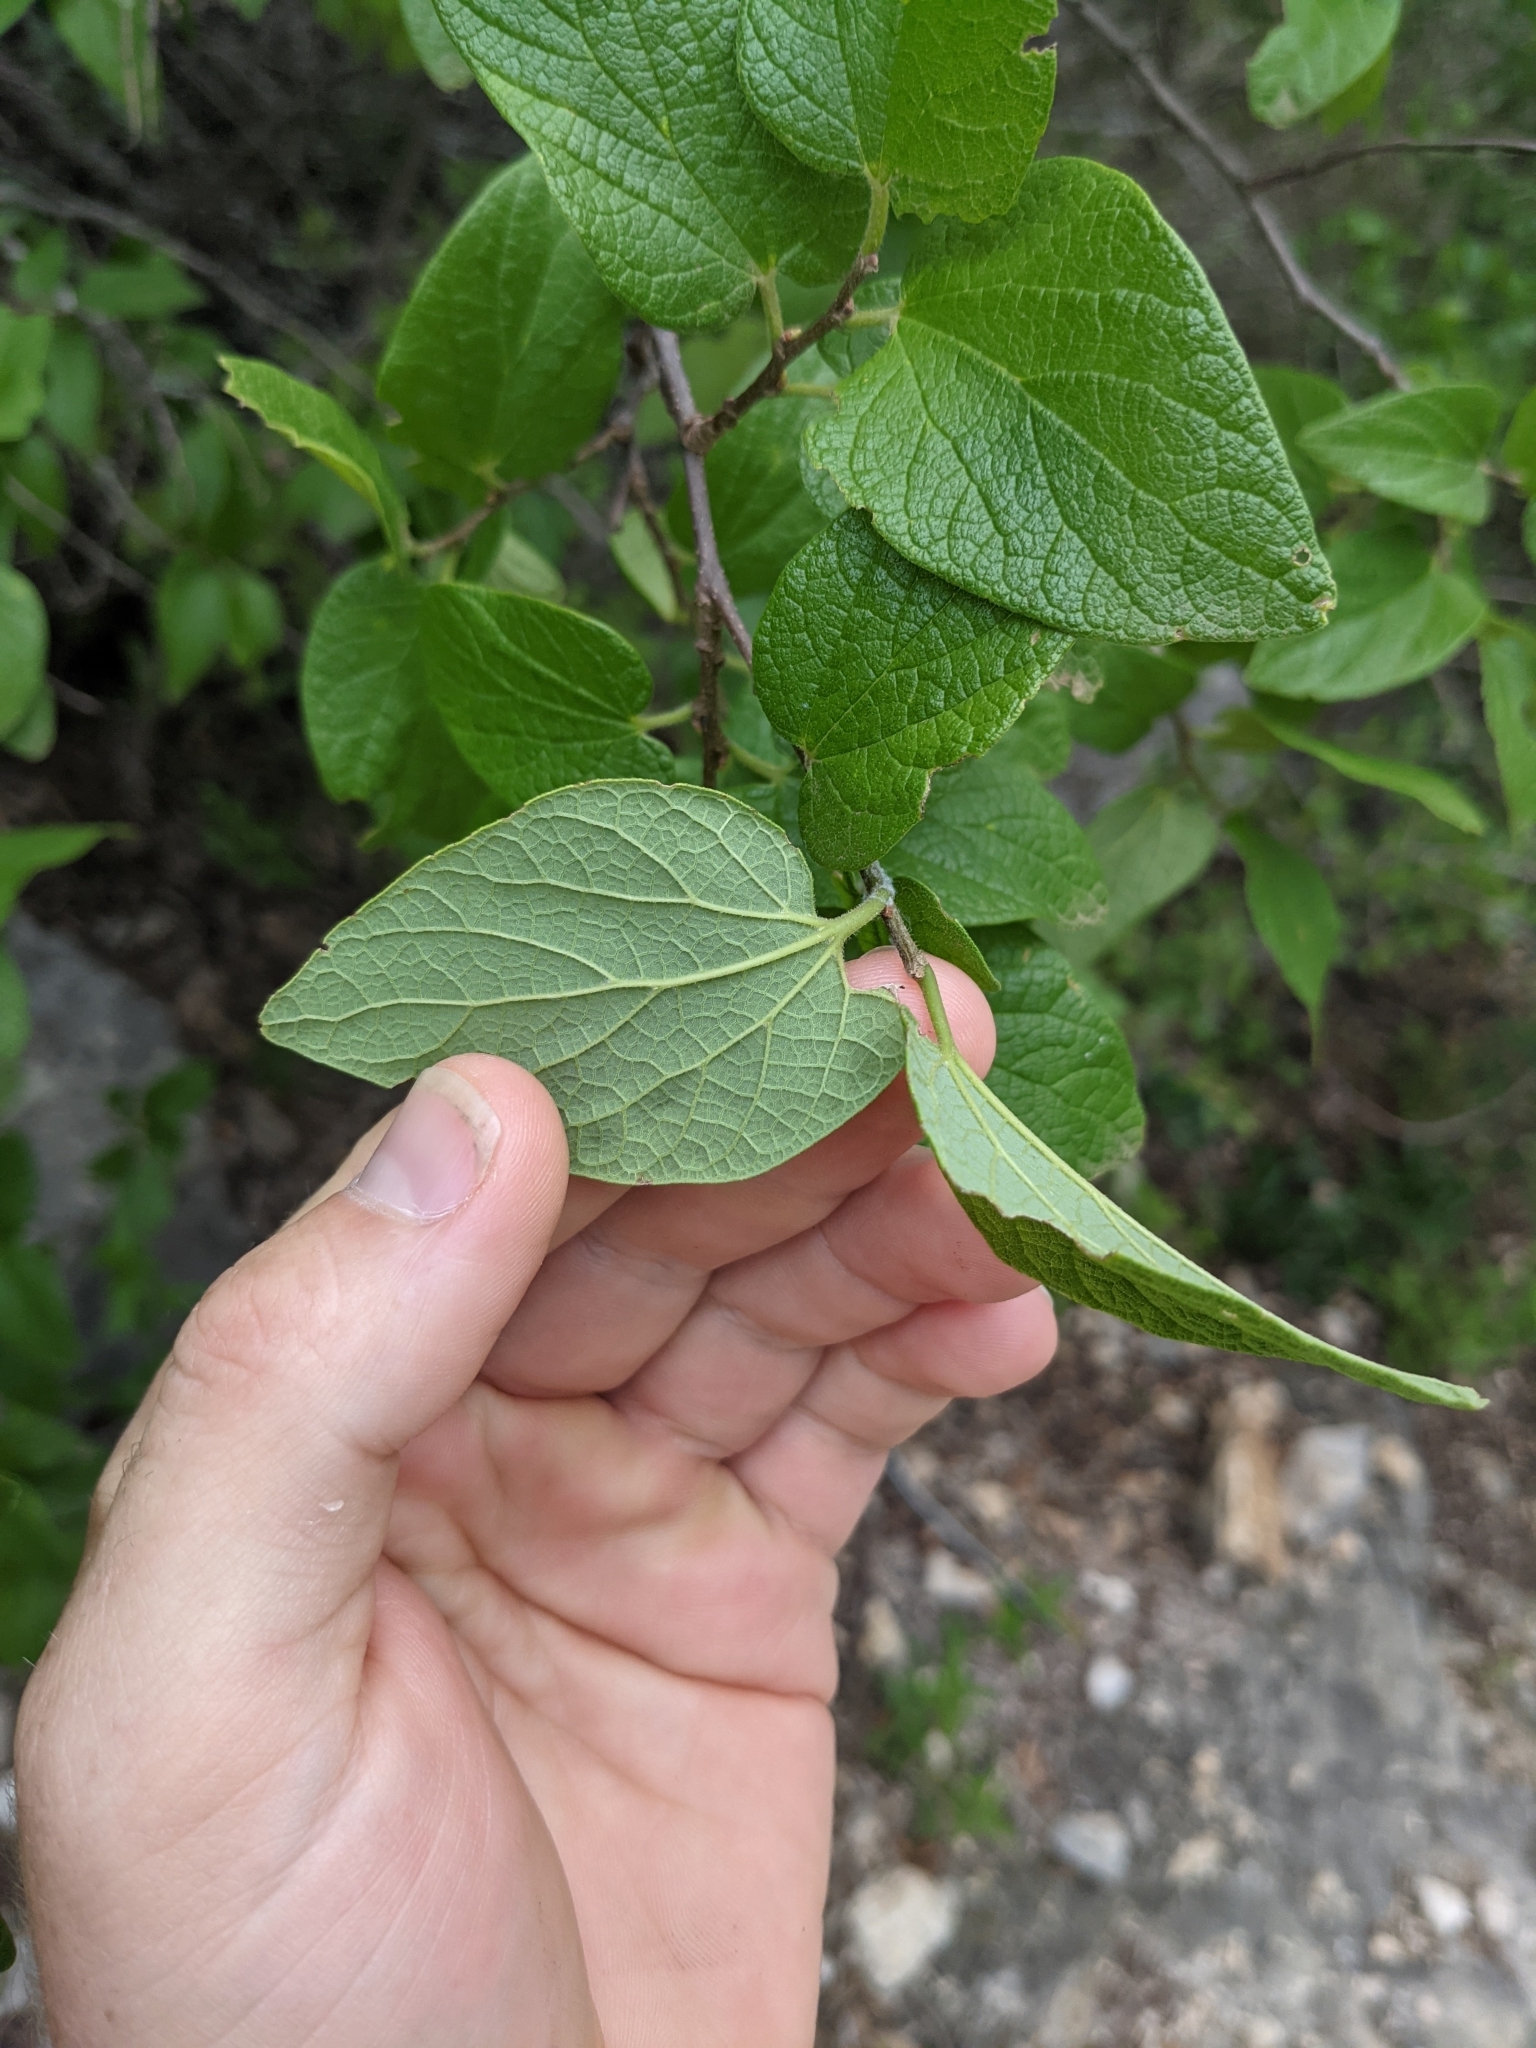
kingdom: Plantae
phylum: Tracheophyta
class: Magnoliopsida
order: Rosales
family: Cannabaceae
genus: Celtis
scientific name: Celtis reticulata
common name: Netleaf hackberry
